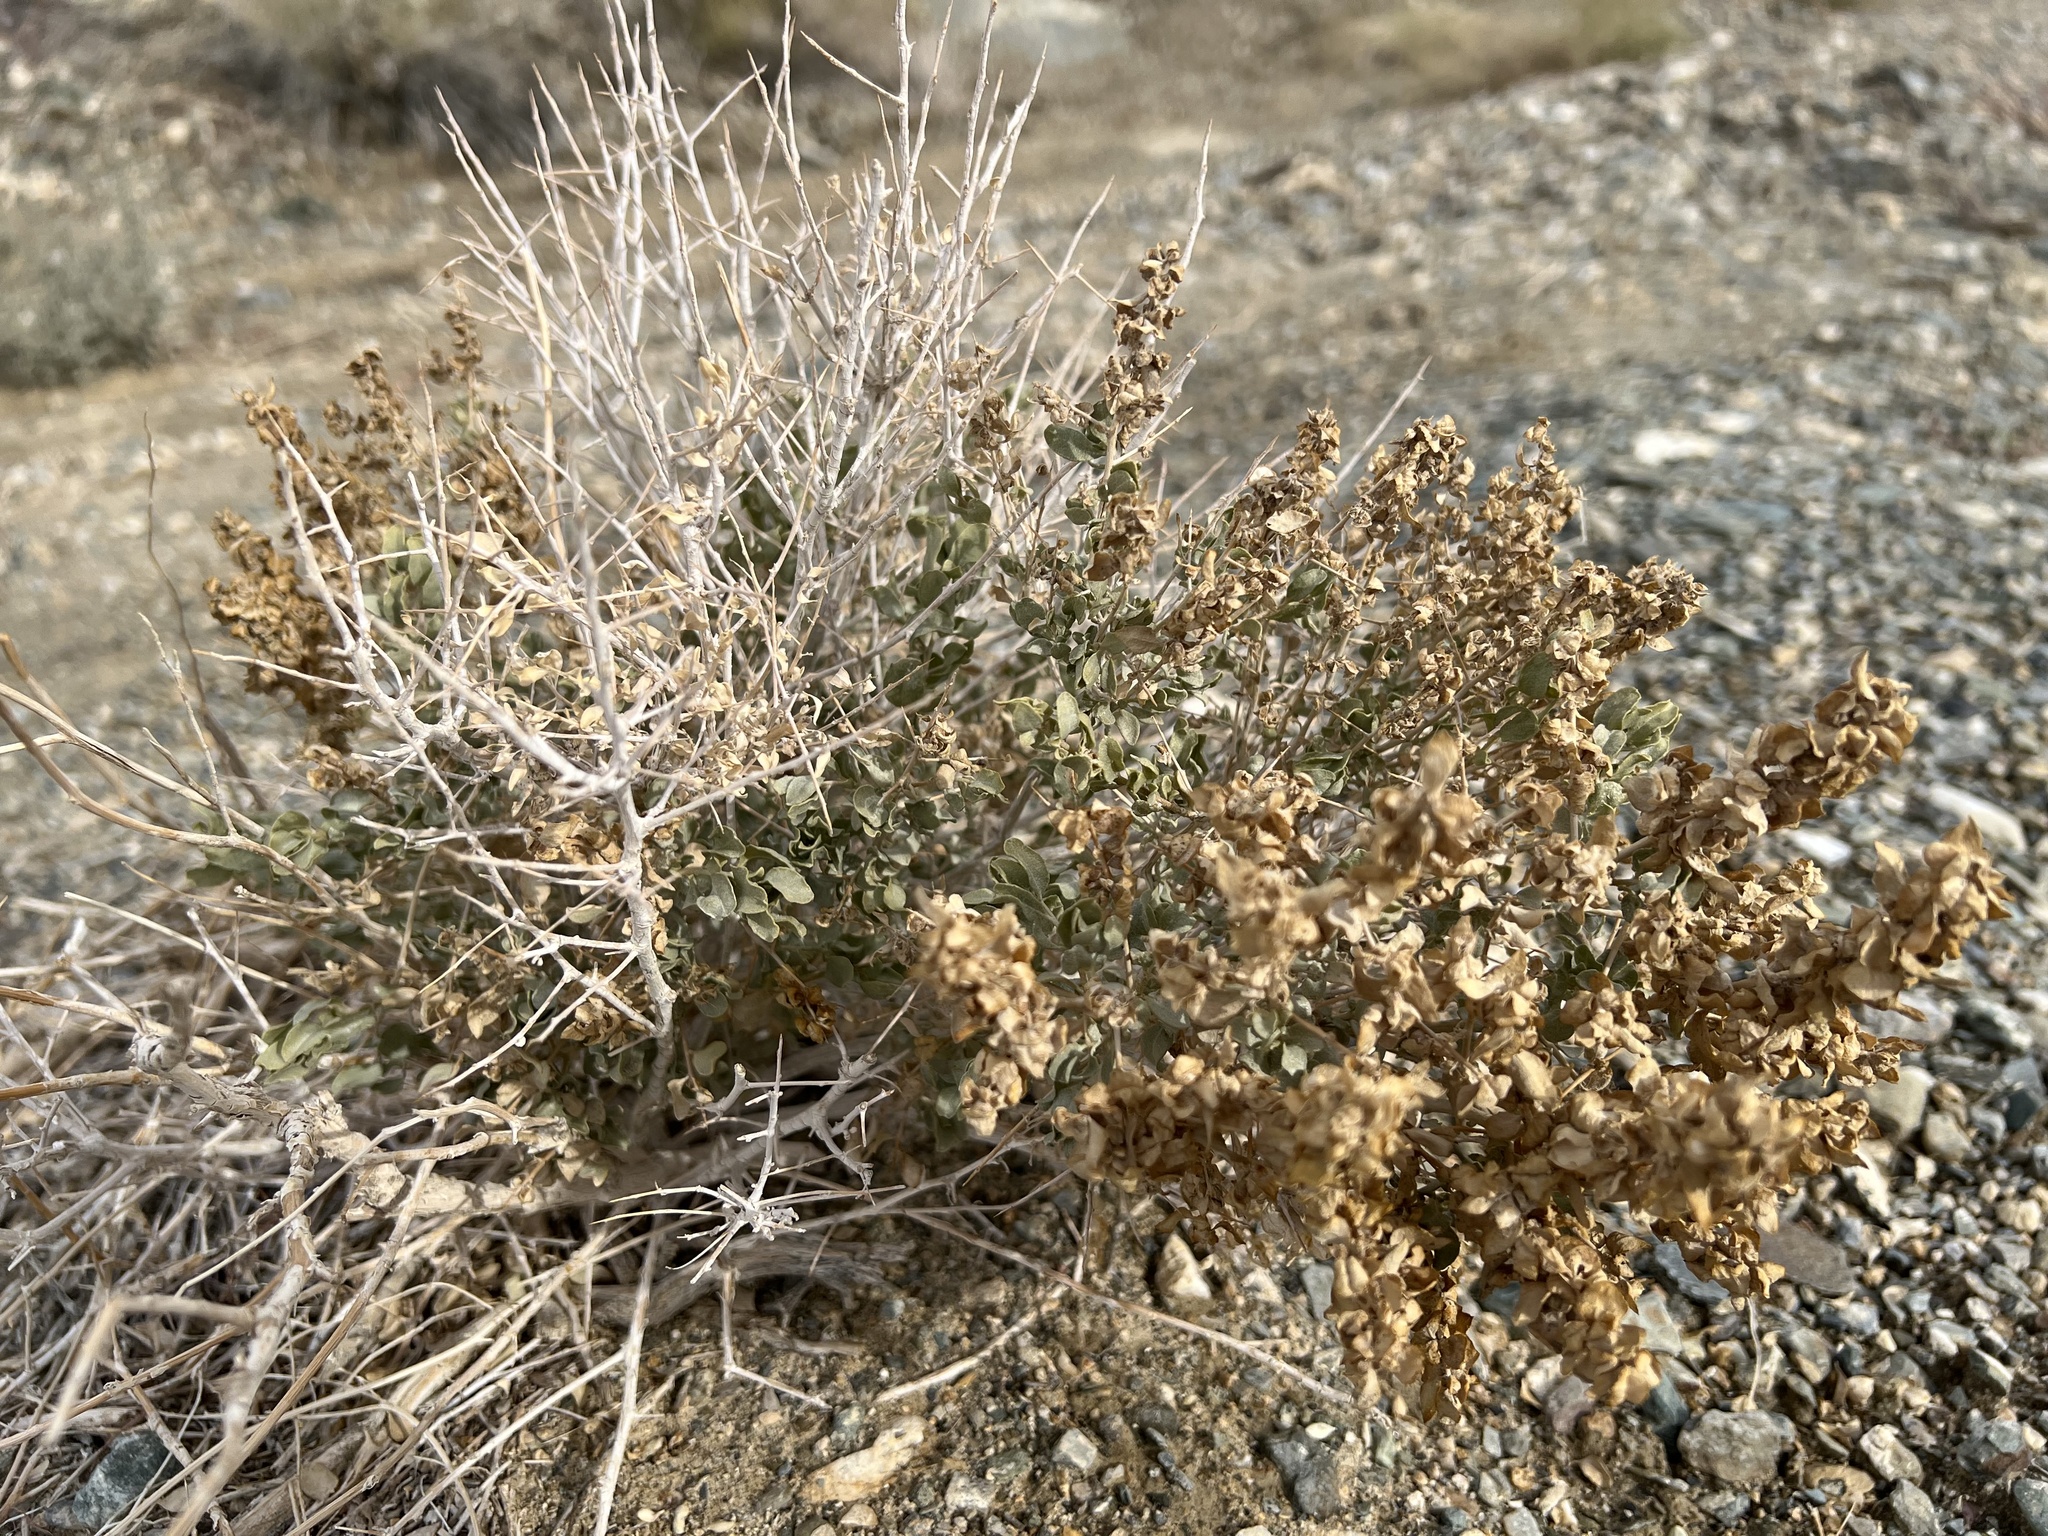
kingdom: Plantae
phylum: Tracheophyta
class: Magnoliopsida
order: Caryophyllales
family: Amaranthaceae
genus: Atriplex
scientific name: Atriplex confertifolia
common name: Shadscale
